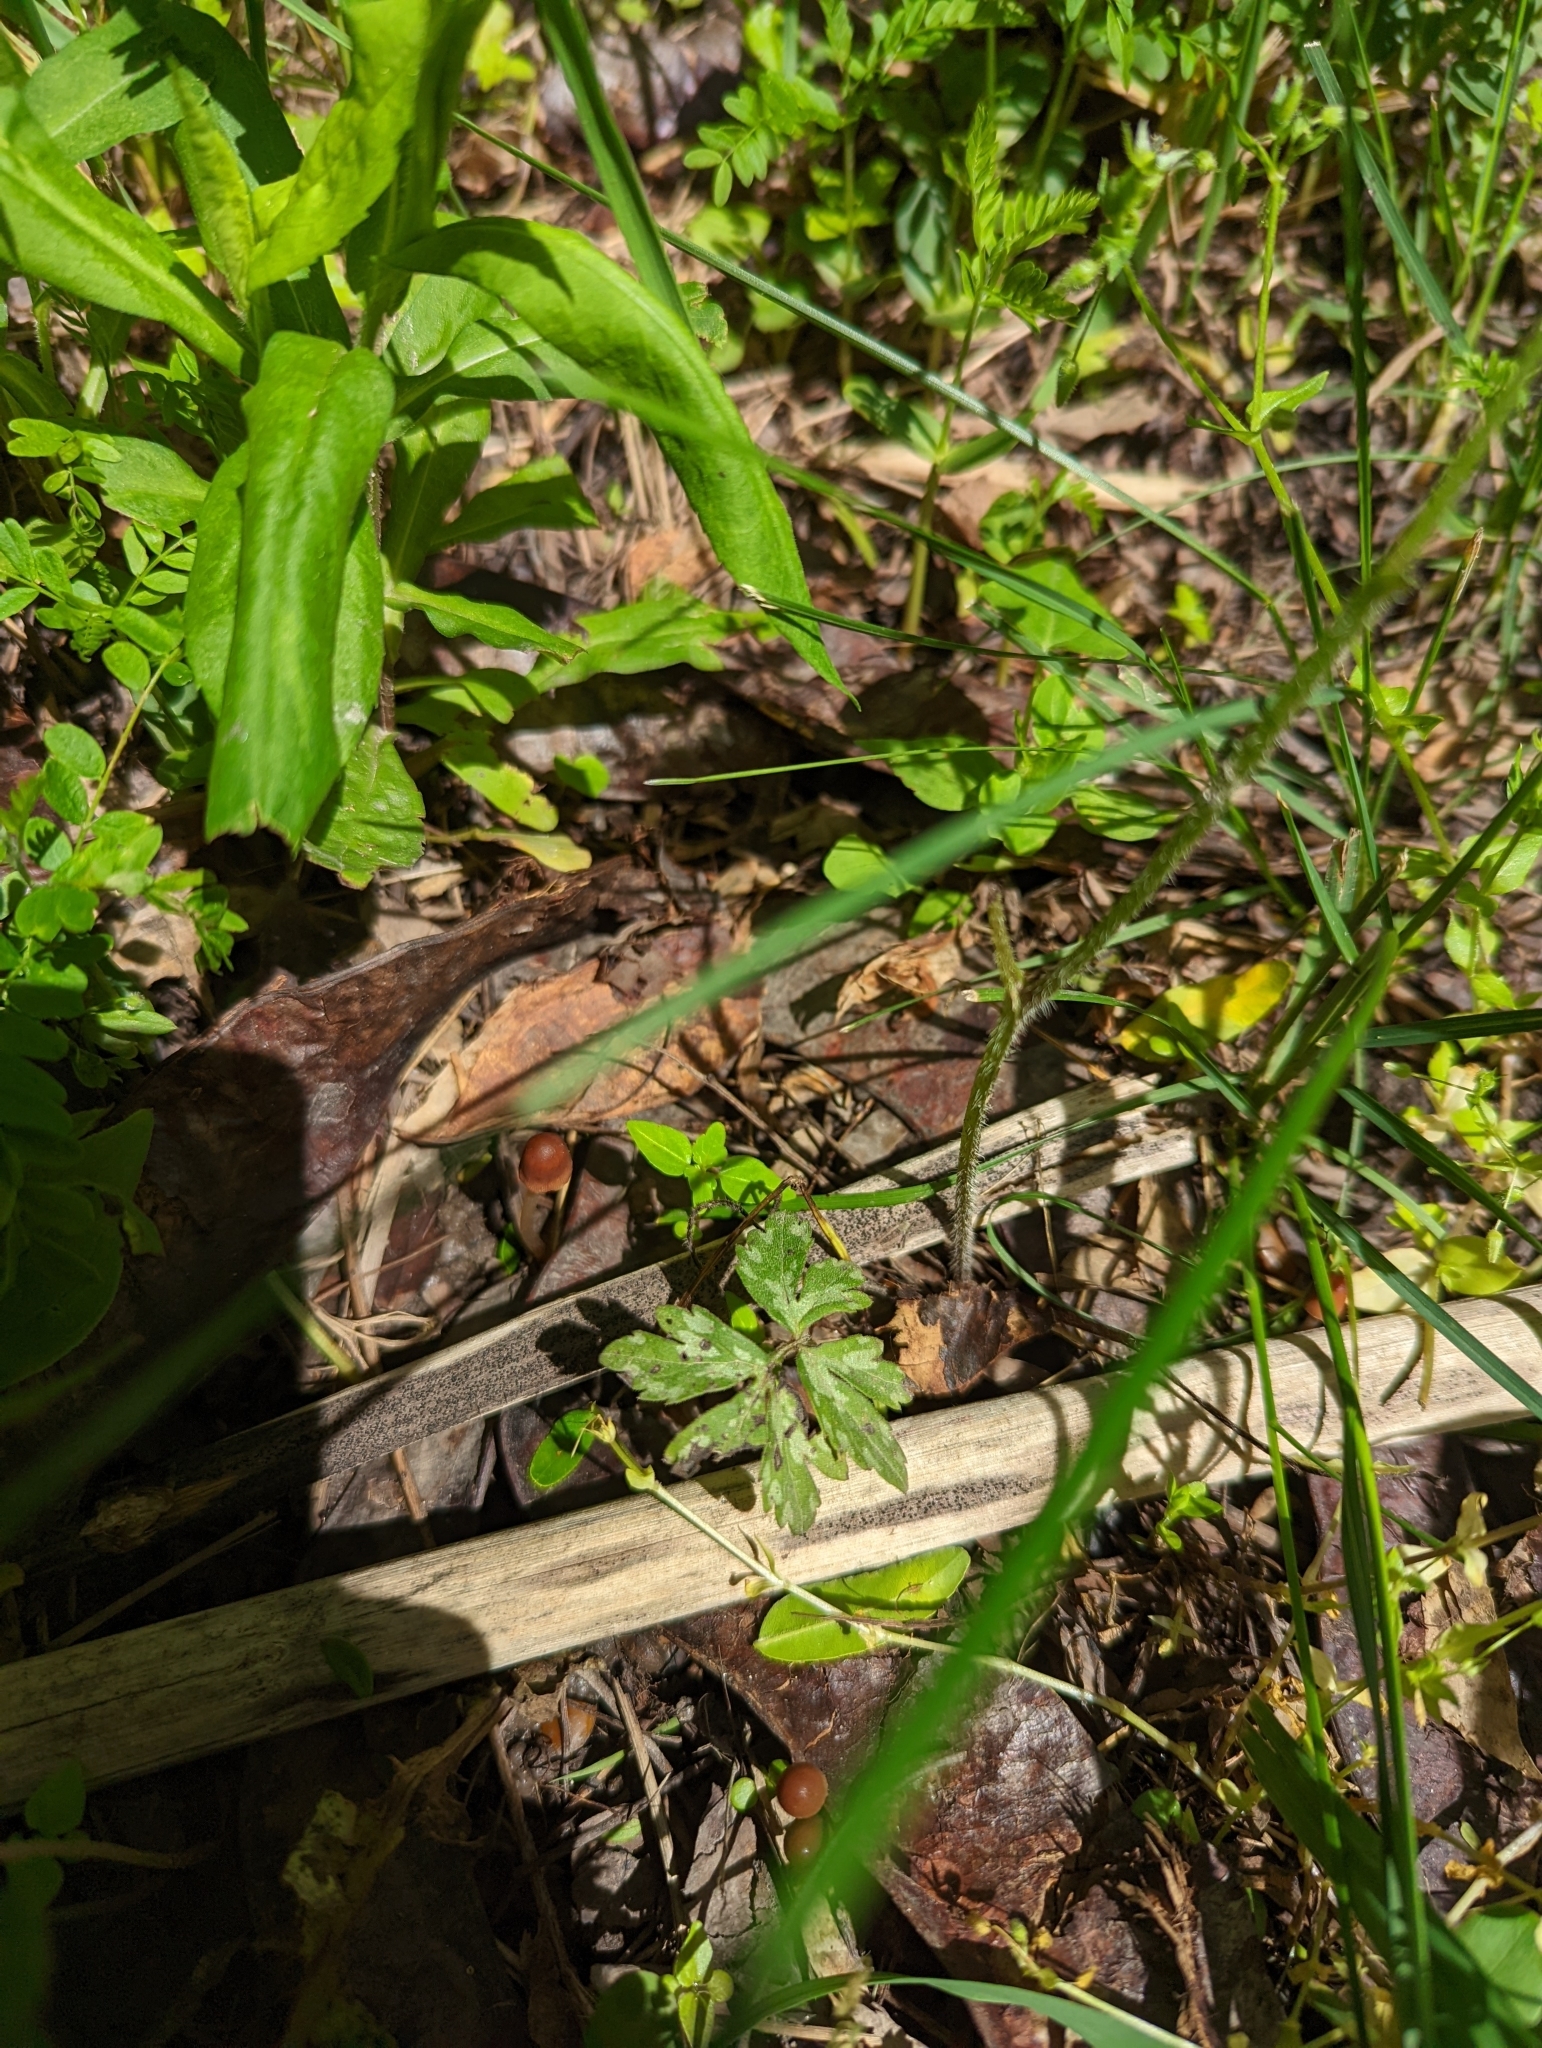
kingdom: Plantae
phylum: Tracheophyta
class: Magnoliopsida
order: Boraginales
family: Hydrophyllaceae
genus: Hydrophyllum
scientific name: Hydrophyllum virginianum
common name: Virginia waterleaf
